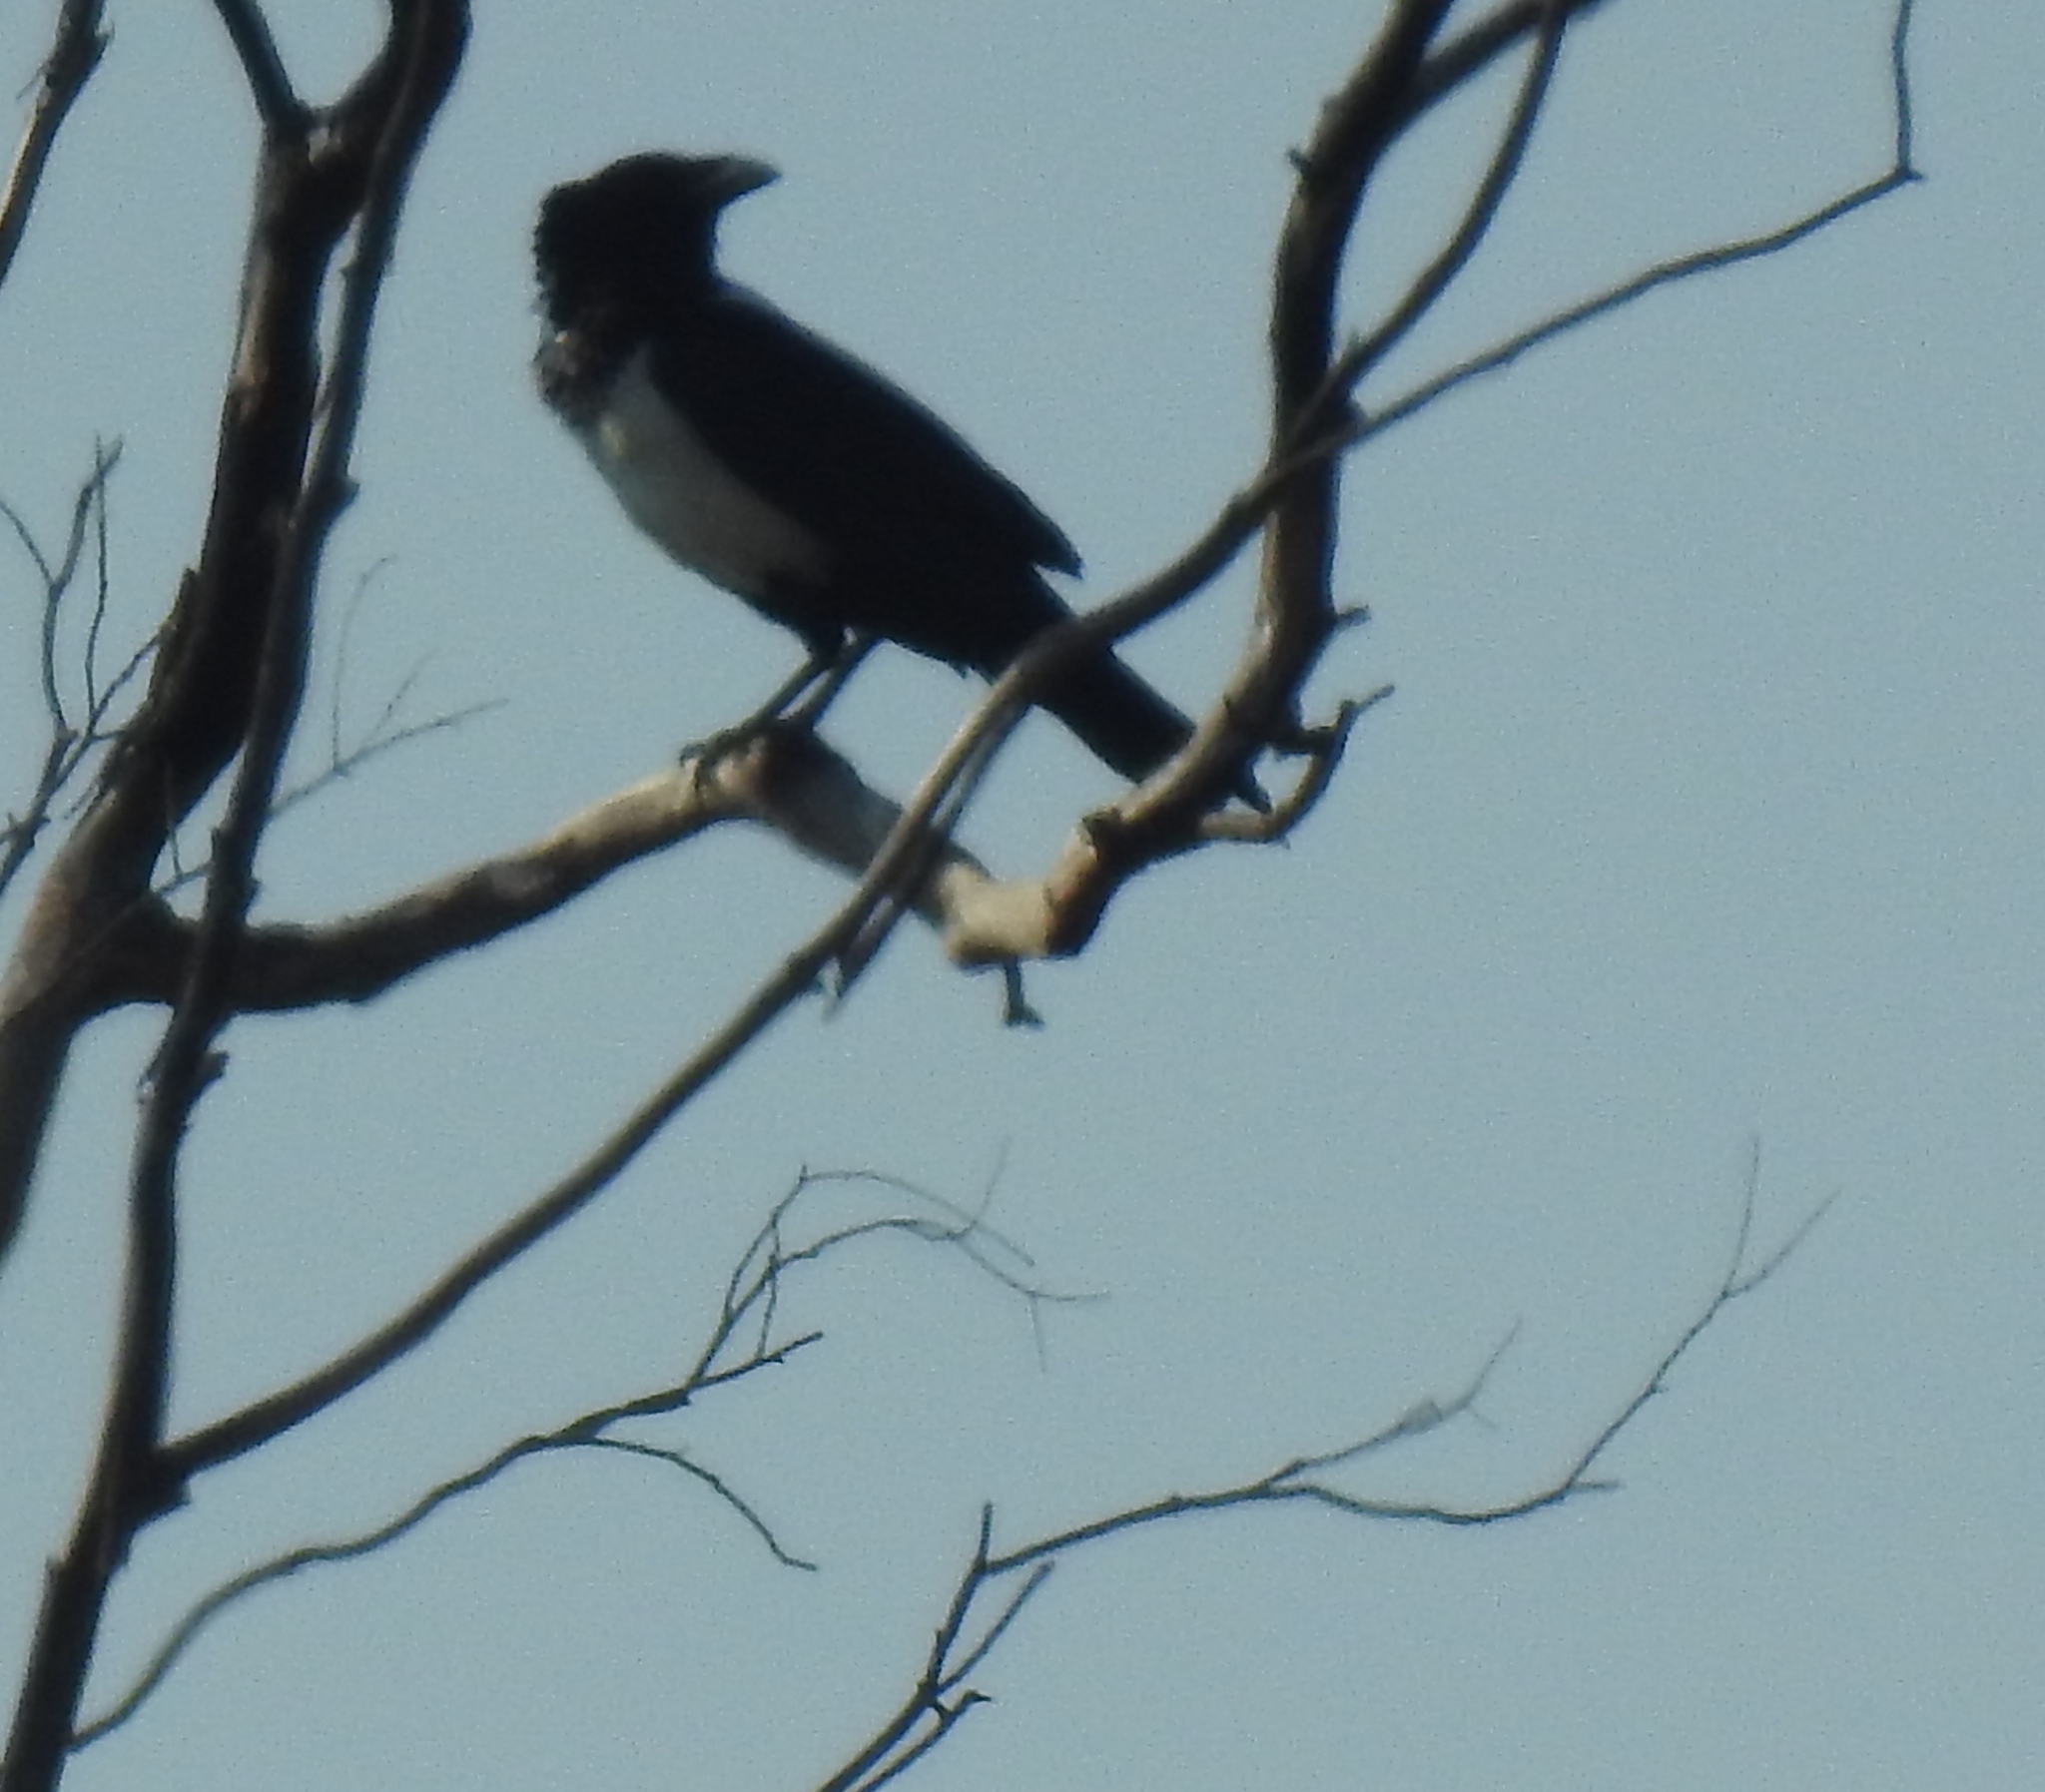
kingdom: Animalia
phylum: Chordata
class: Aves
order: Passeriformes
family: Corvidae
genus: Corvus
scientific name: Corvus albus
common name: Pied crow
